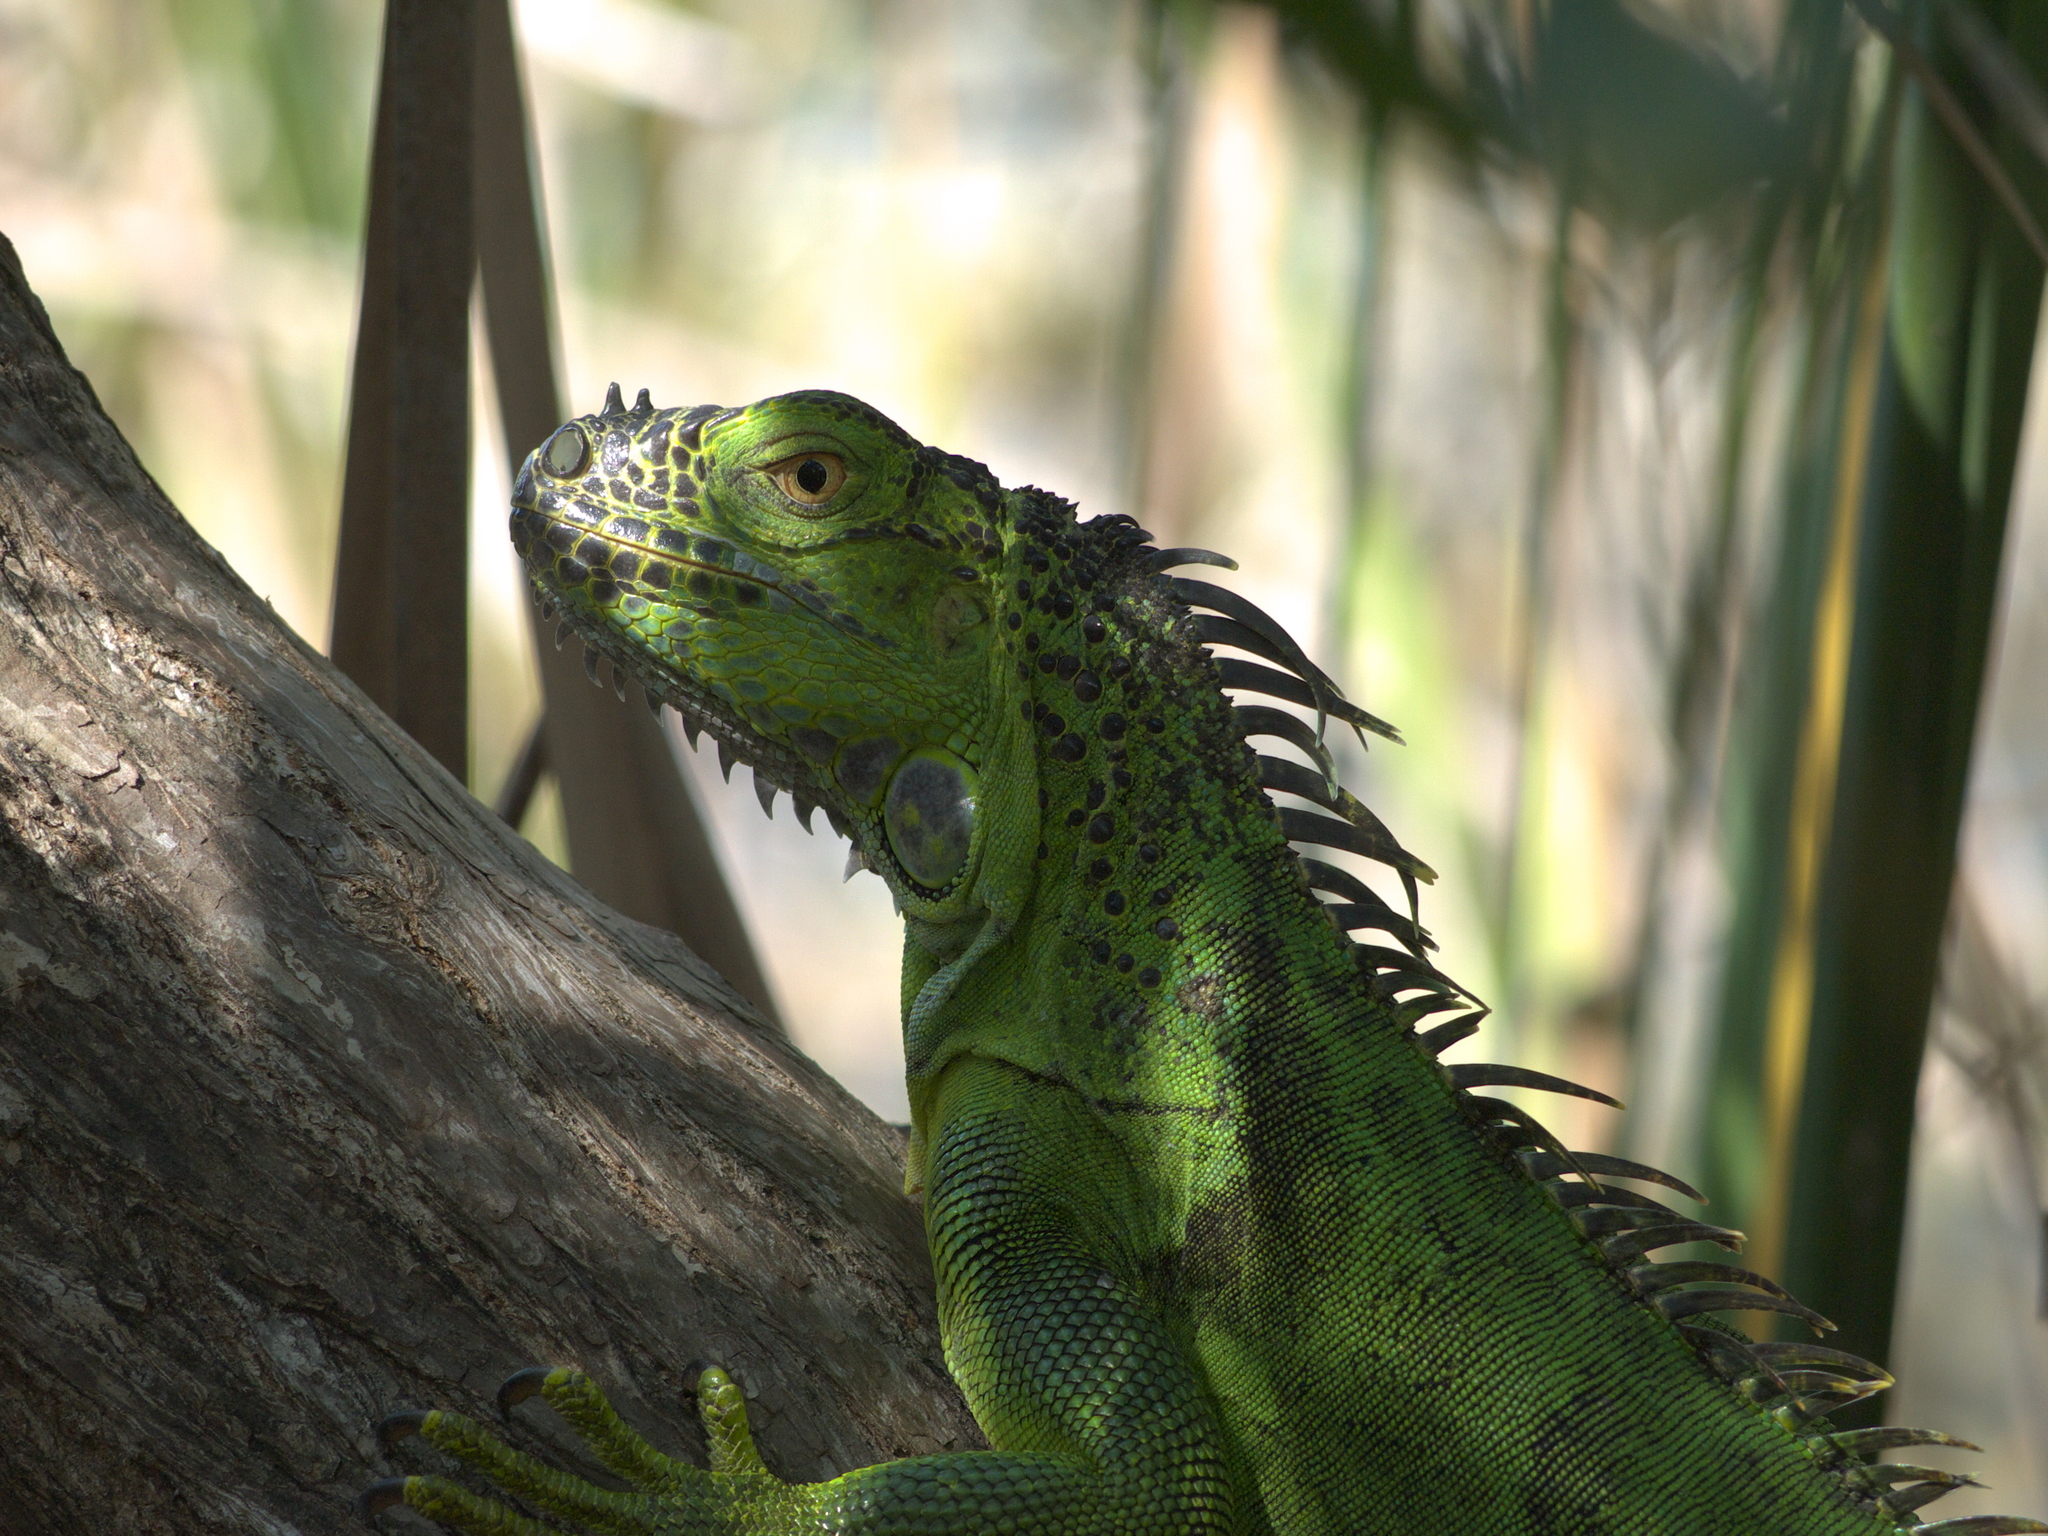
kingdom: Animalia
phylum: Chordata
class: Squamata
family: Iguanidae
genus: Iguana
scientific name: Iguana iguana
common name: Green iguana
